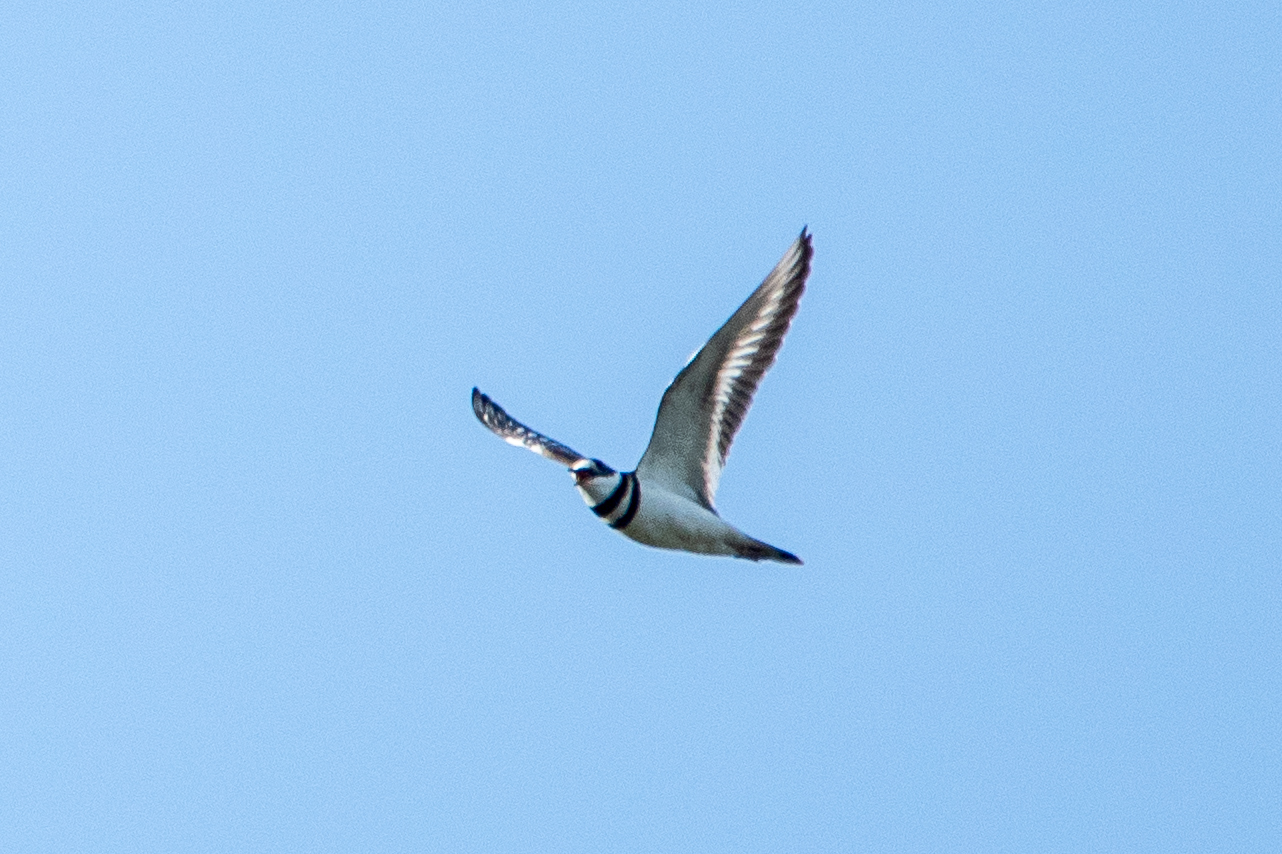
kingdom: Animalia
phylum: Chordata
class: Aves
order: Charadriiformes
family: Charadriidae
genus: Charadrius
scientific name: Charadrius vociferus
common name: Killdeer
